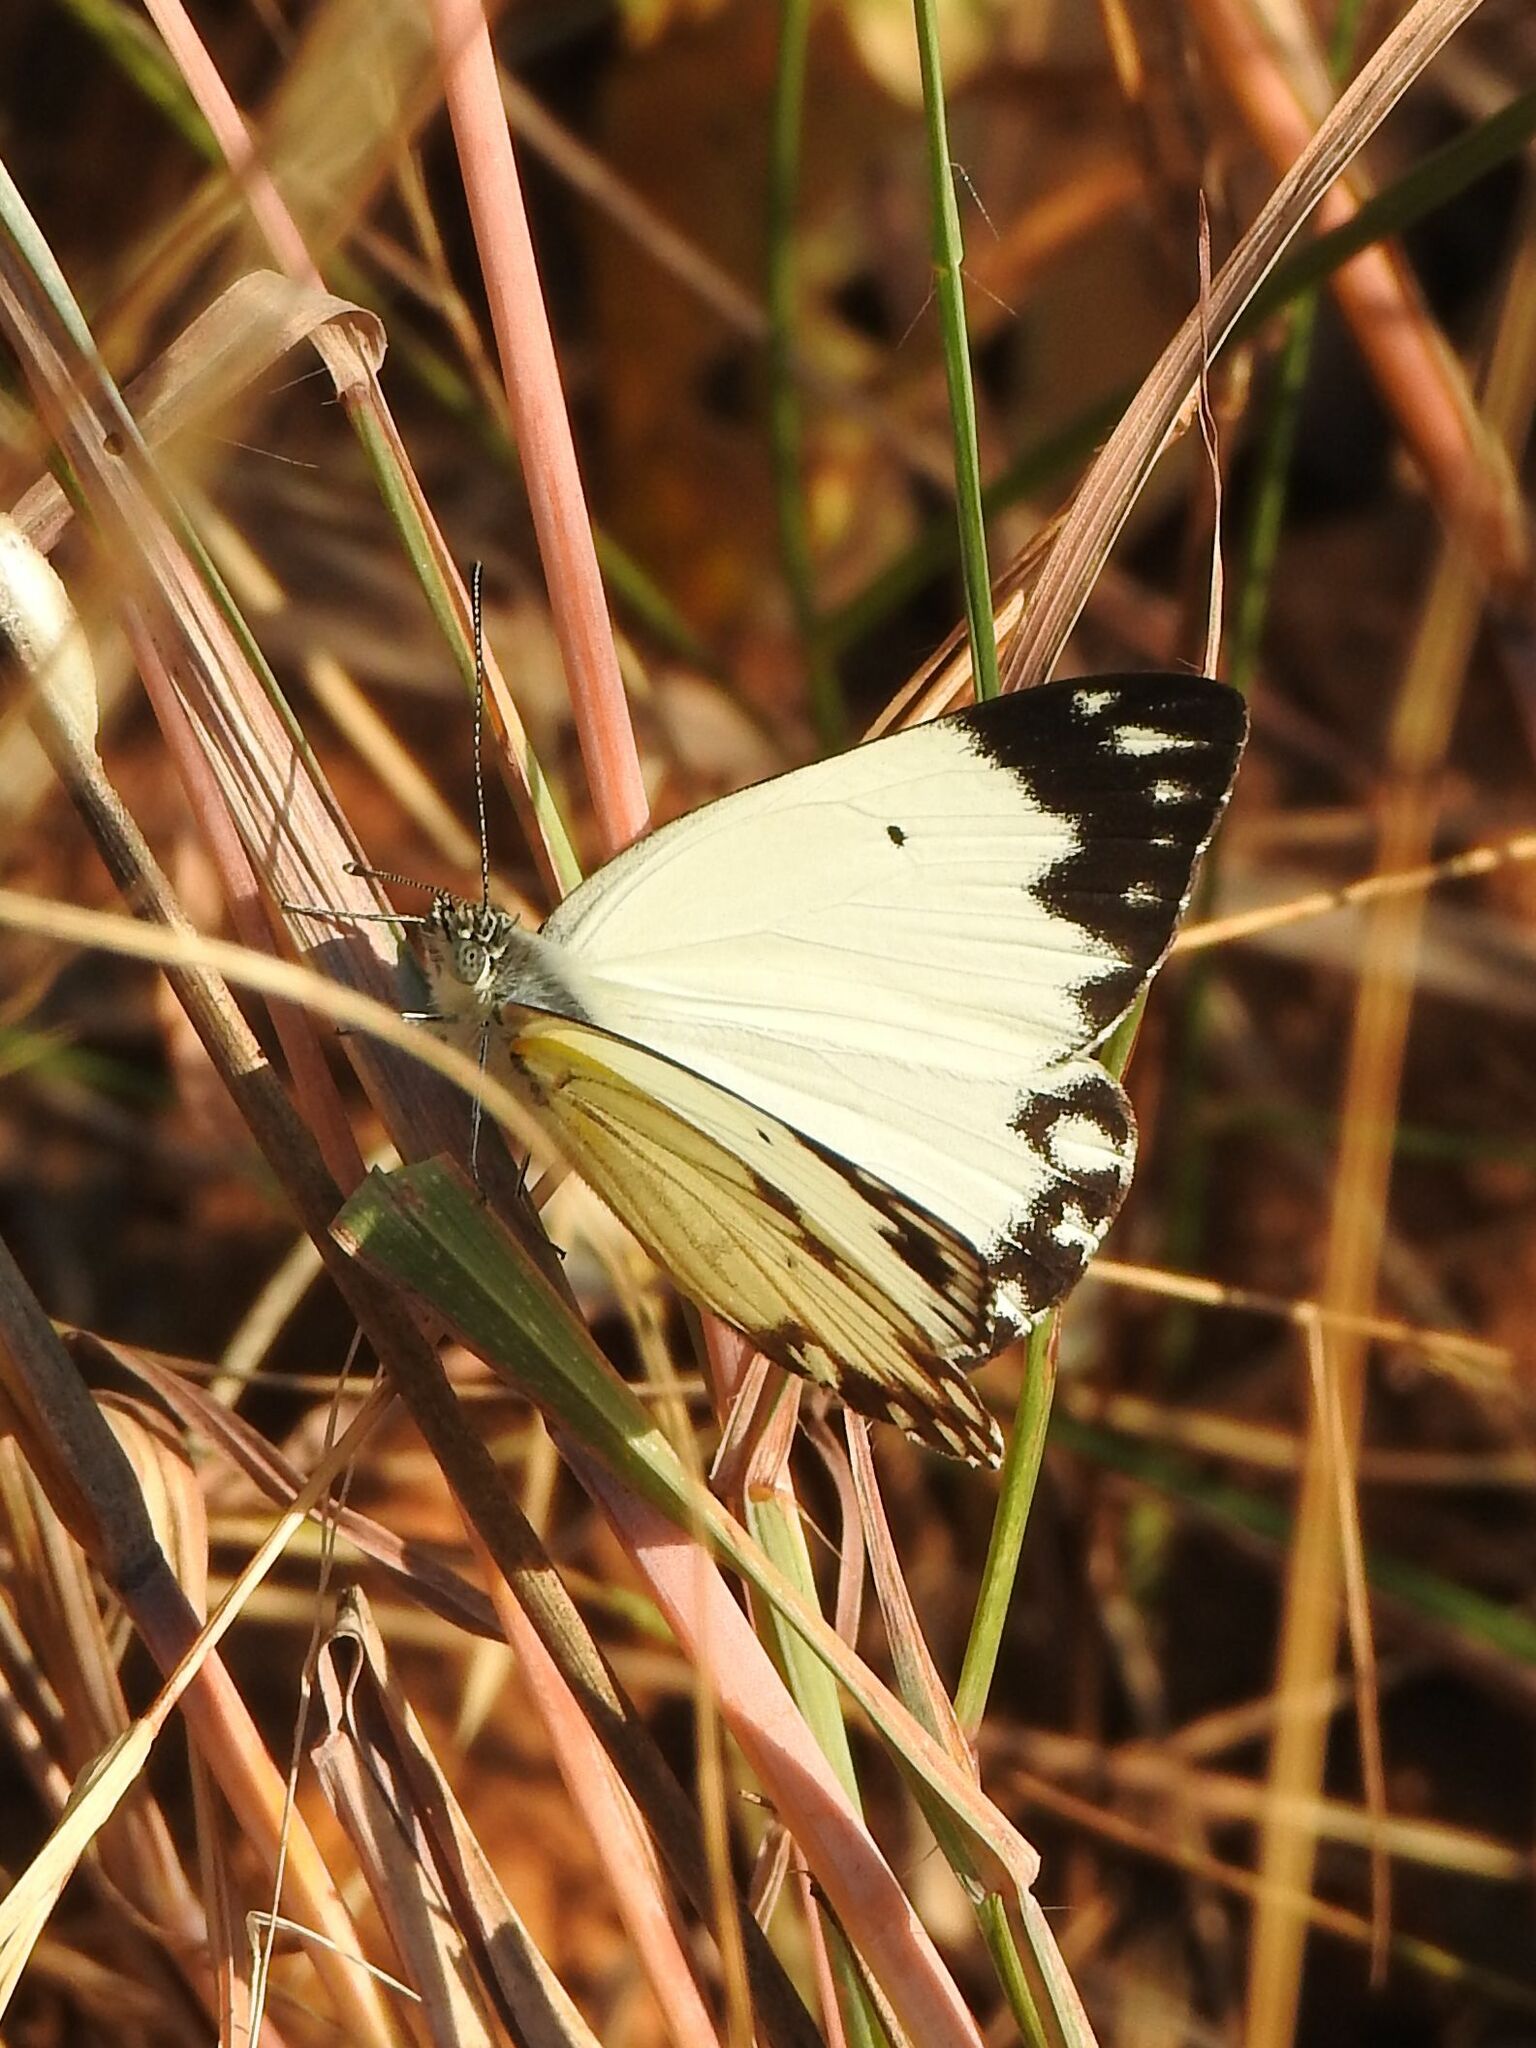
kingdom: Animalia
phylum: Arthropoda
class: Insecta
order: Lepidoptera
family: Pieridae
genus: Belenois
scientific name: Belenois creona
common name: African caper white
